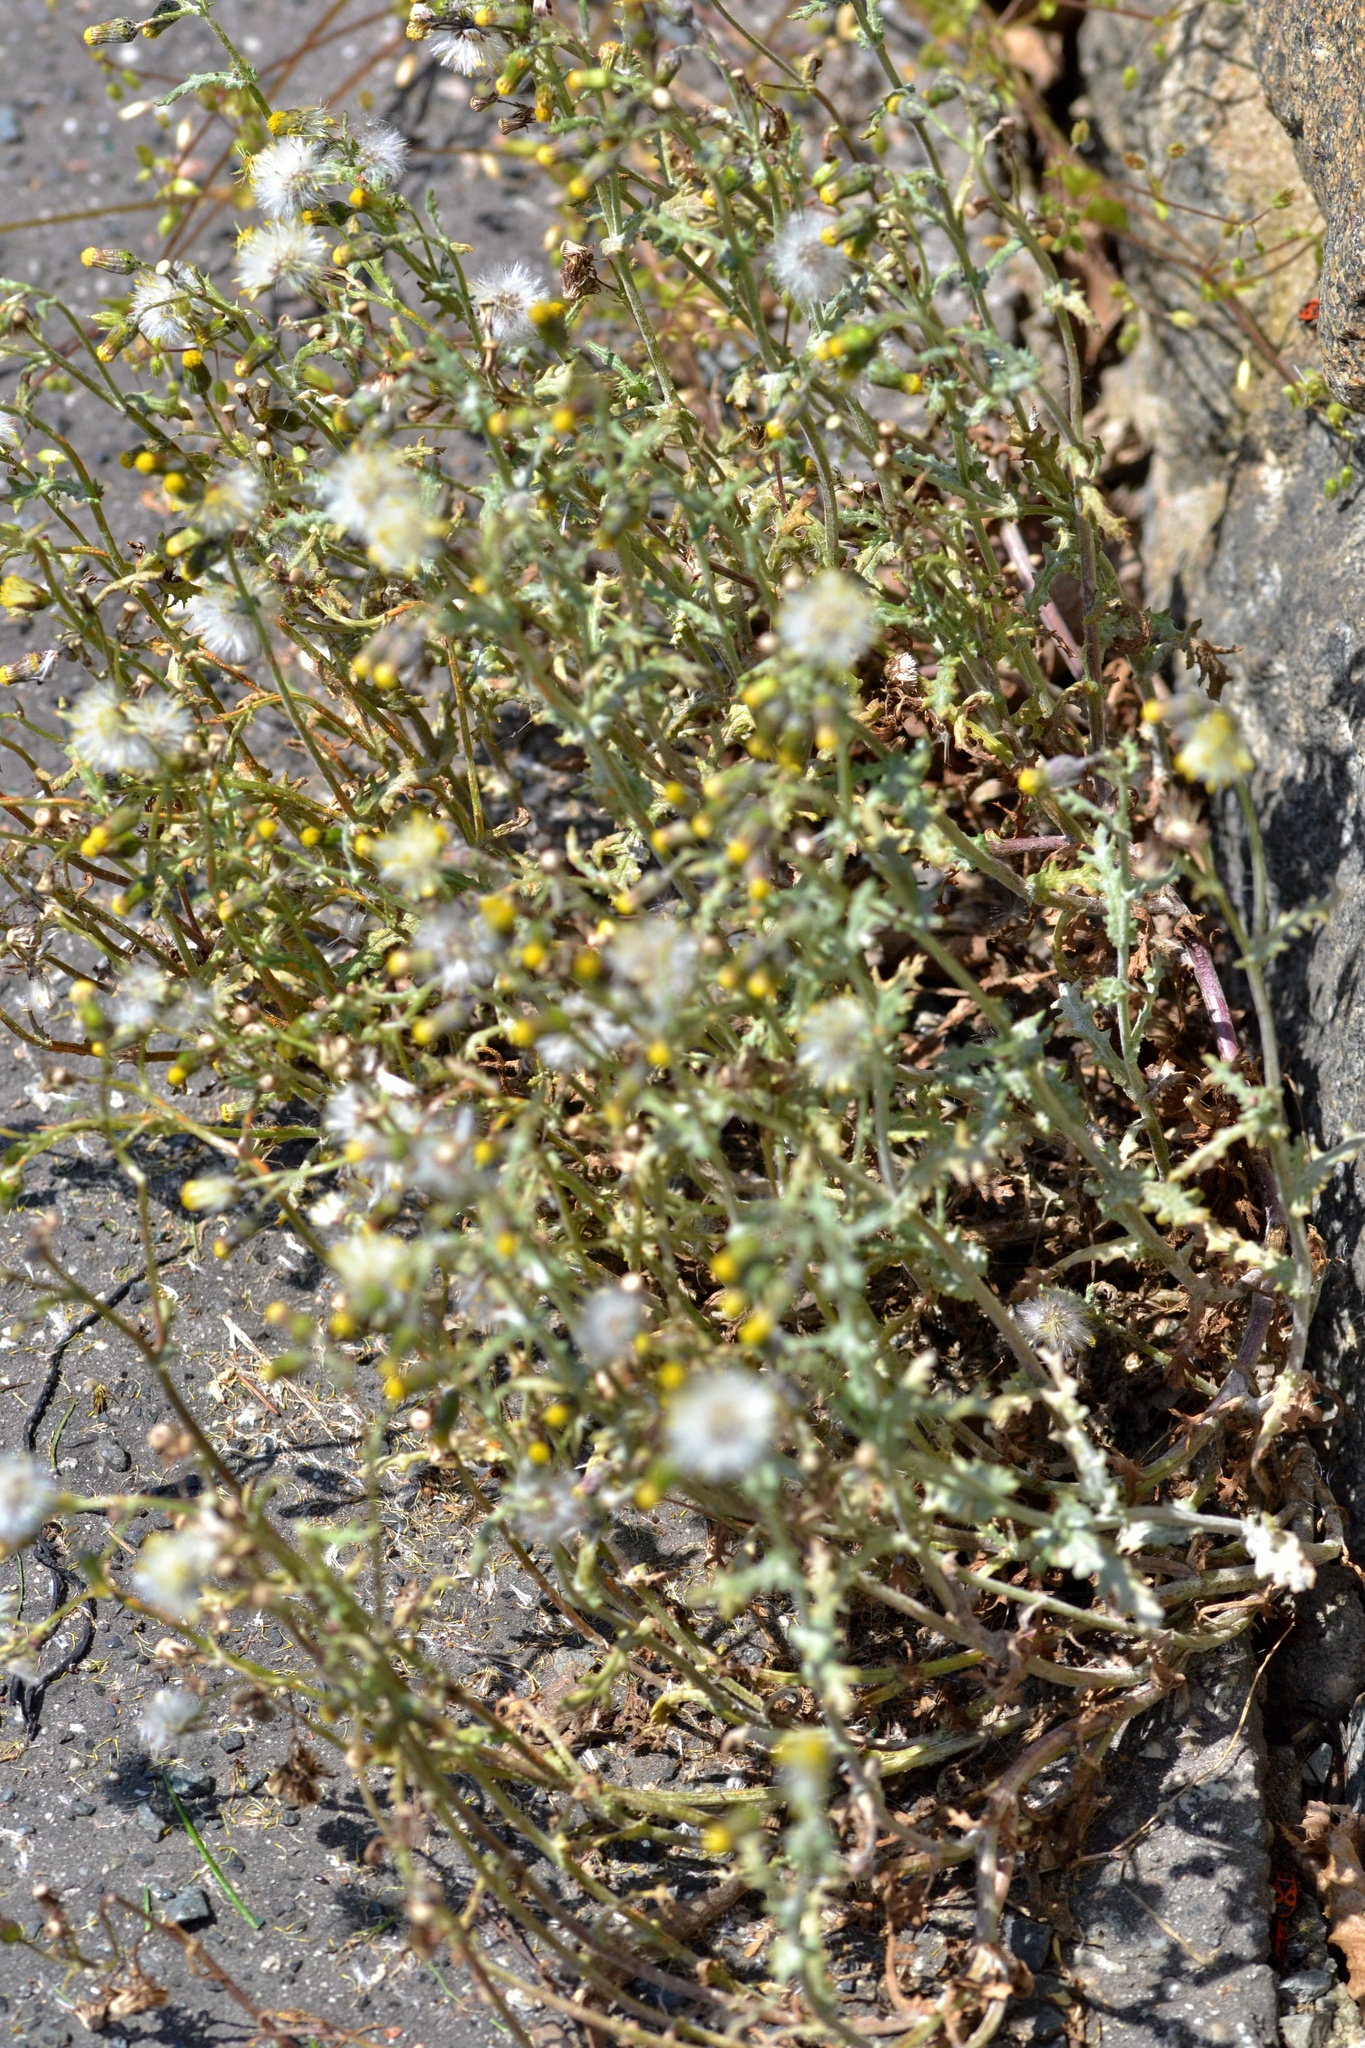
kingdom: Plantae
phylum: Tracheophyta
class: Magnoliopsida
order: Asterales
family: Asteraceae
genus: Senecio
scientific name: Senecio vulgaris
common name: Old-man-in-the-spring
